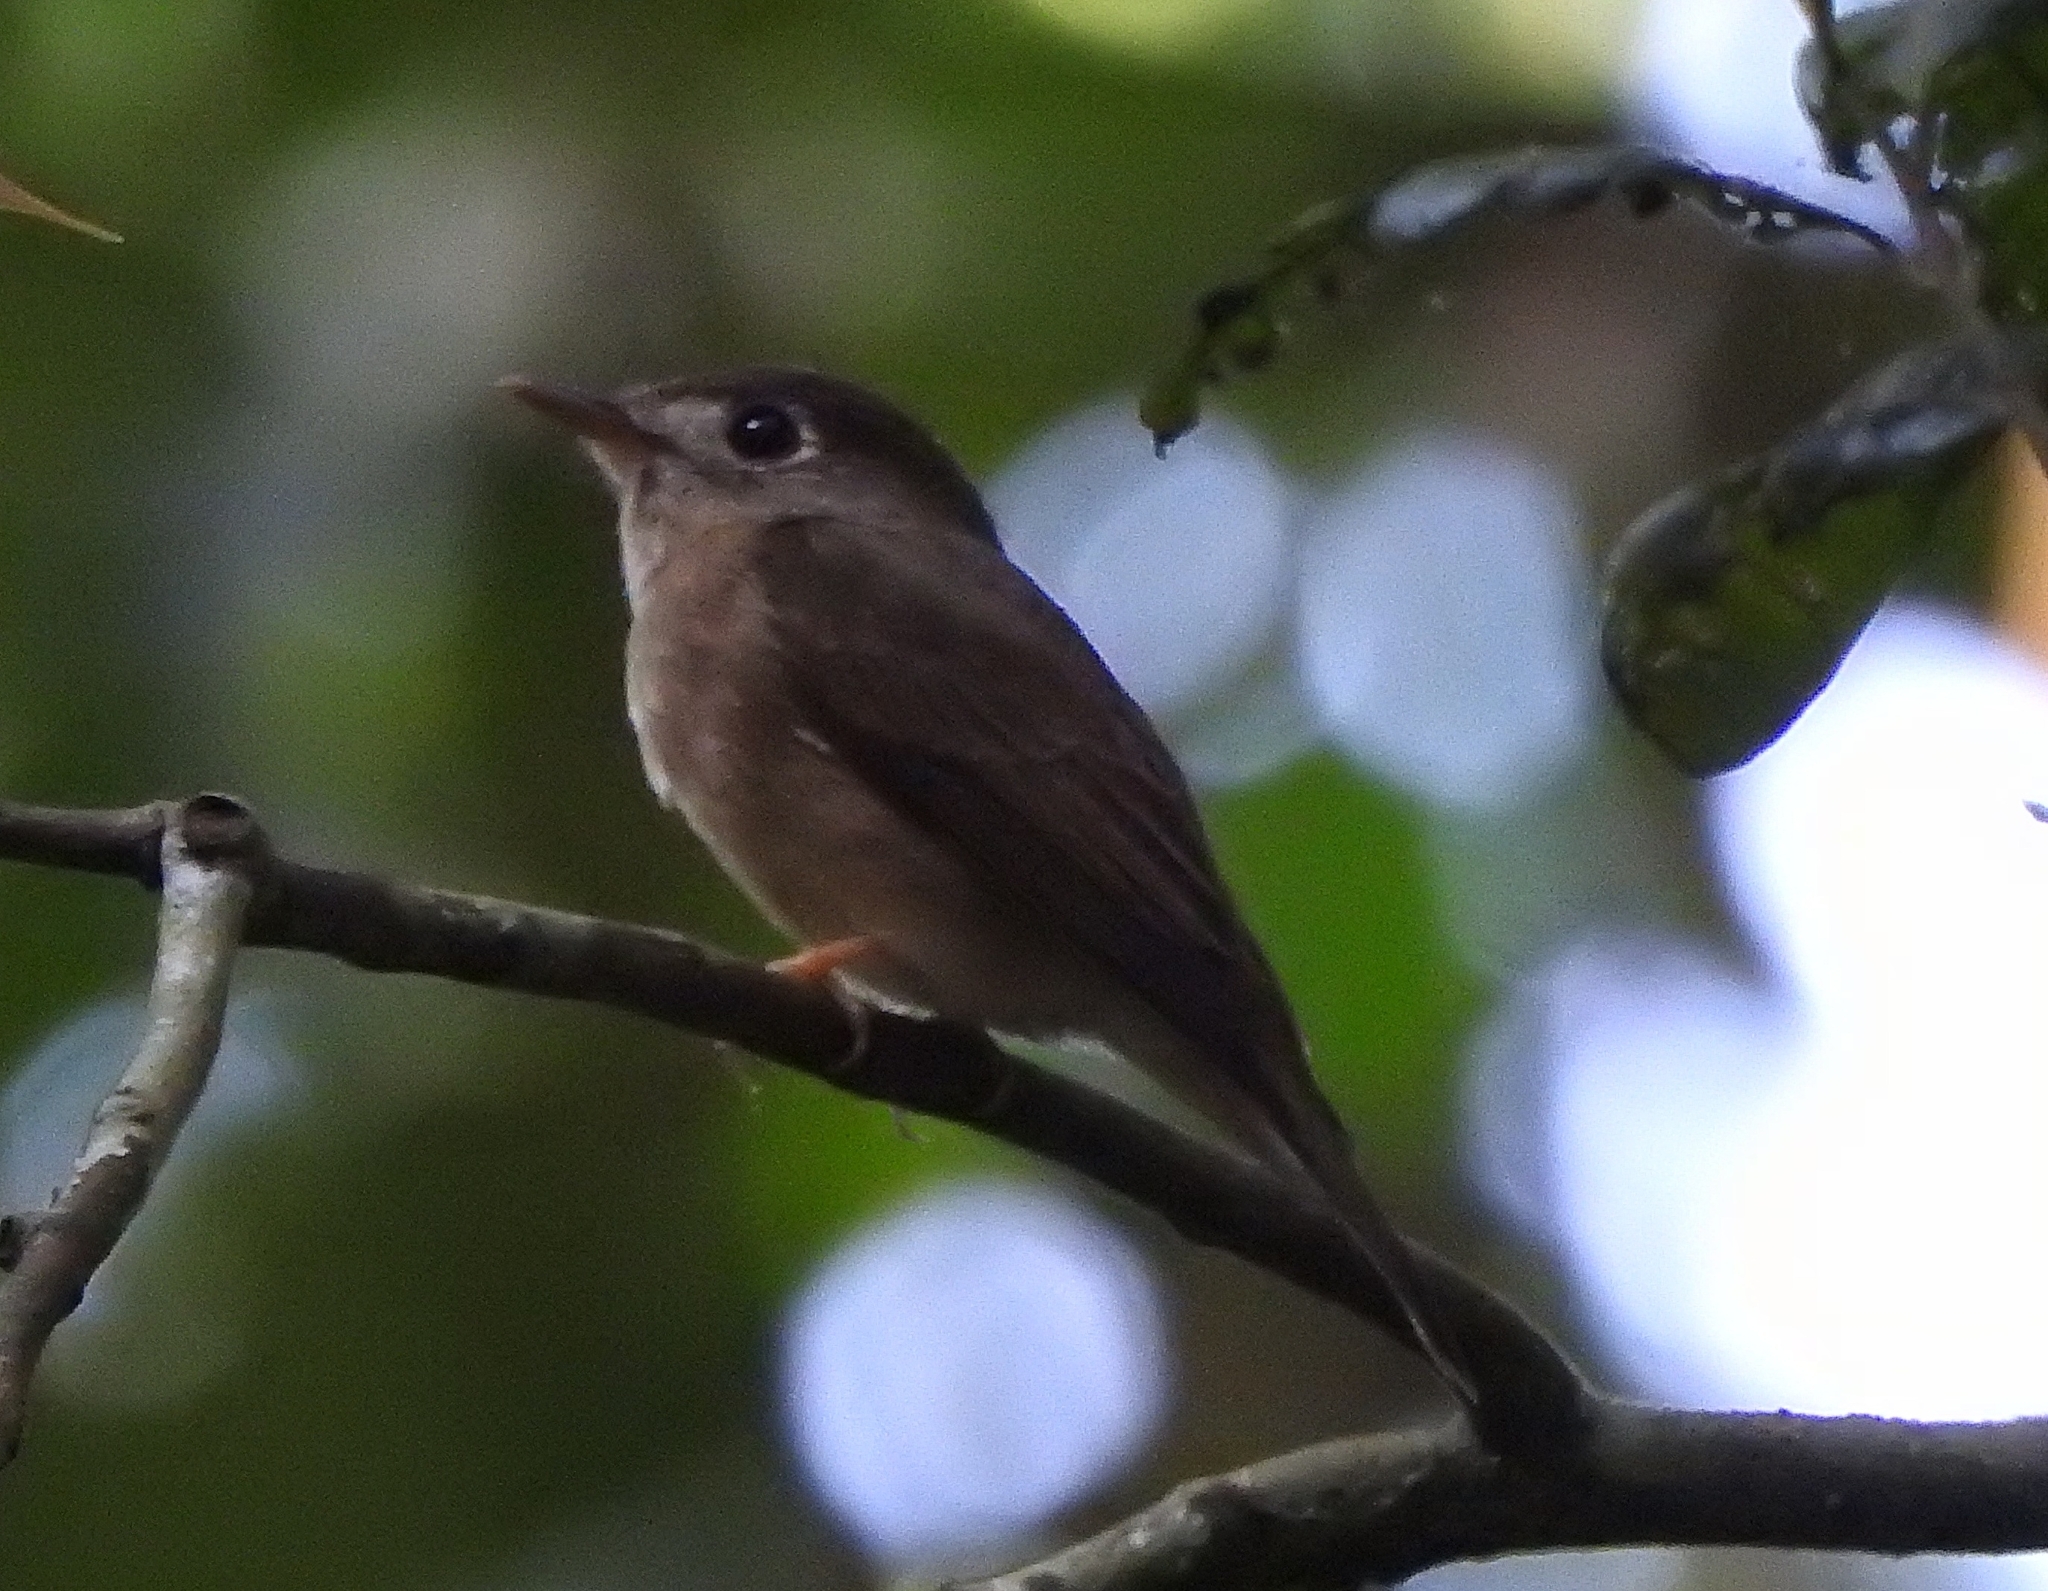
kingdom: Animalia
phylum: Chordata
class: Aves
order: Passeriformes
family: Muscicapidae
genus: Muscicapa
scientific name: Muscicapa muttui
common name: Brown-breasted flycatcher
